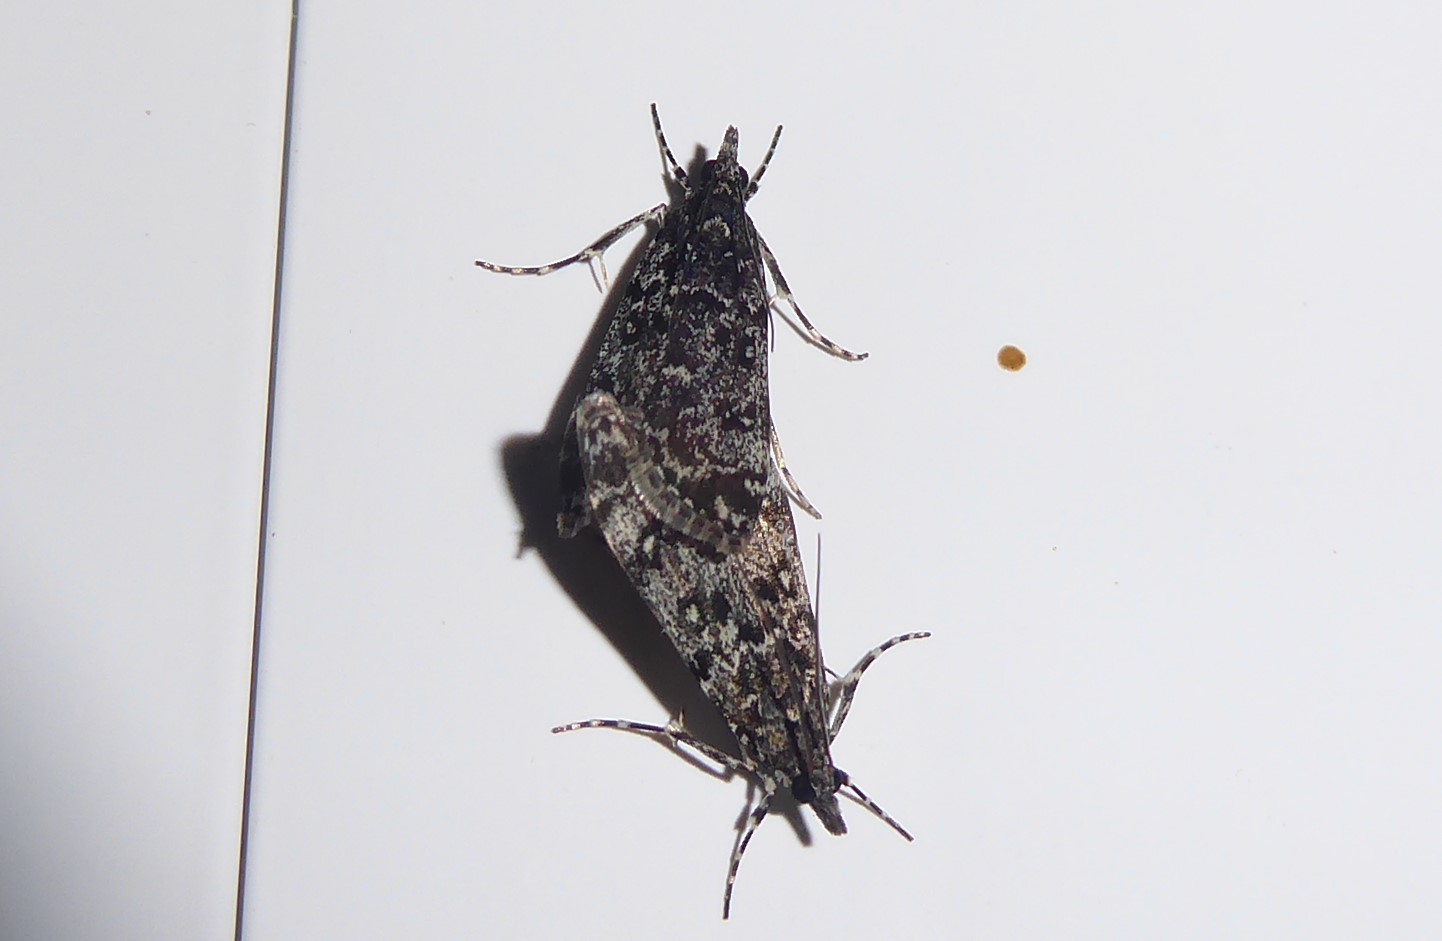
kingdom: Animalia
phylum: Arthropoda
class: Insecta
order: Lepidoptera
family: Crambidae
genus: Eudonia
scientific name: Eudonia philerga
